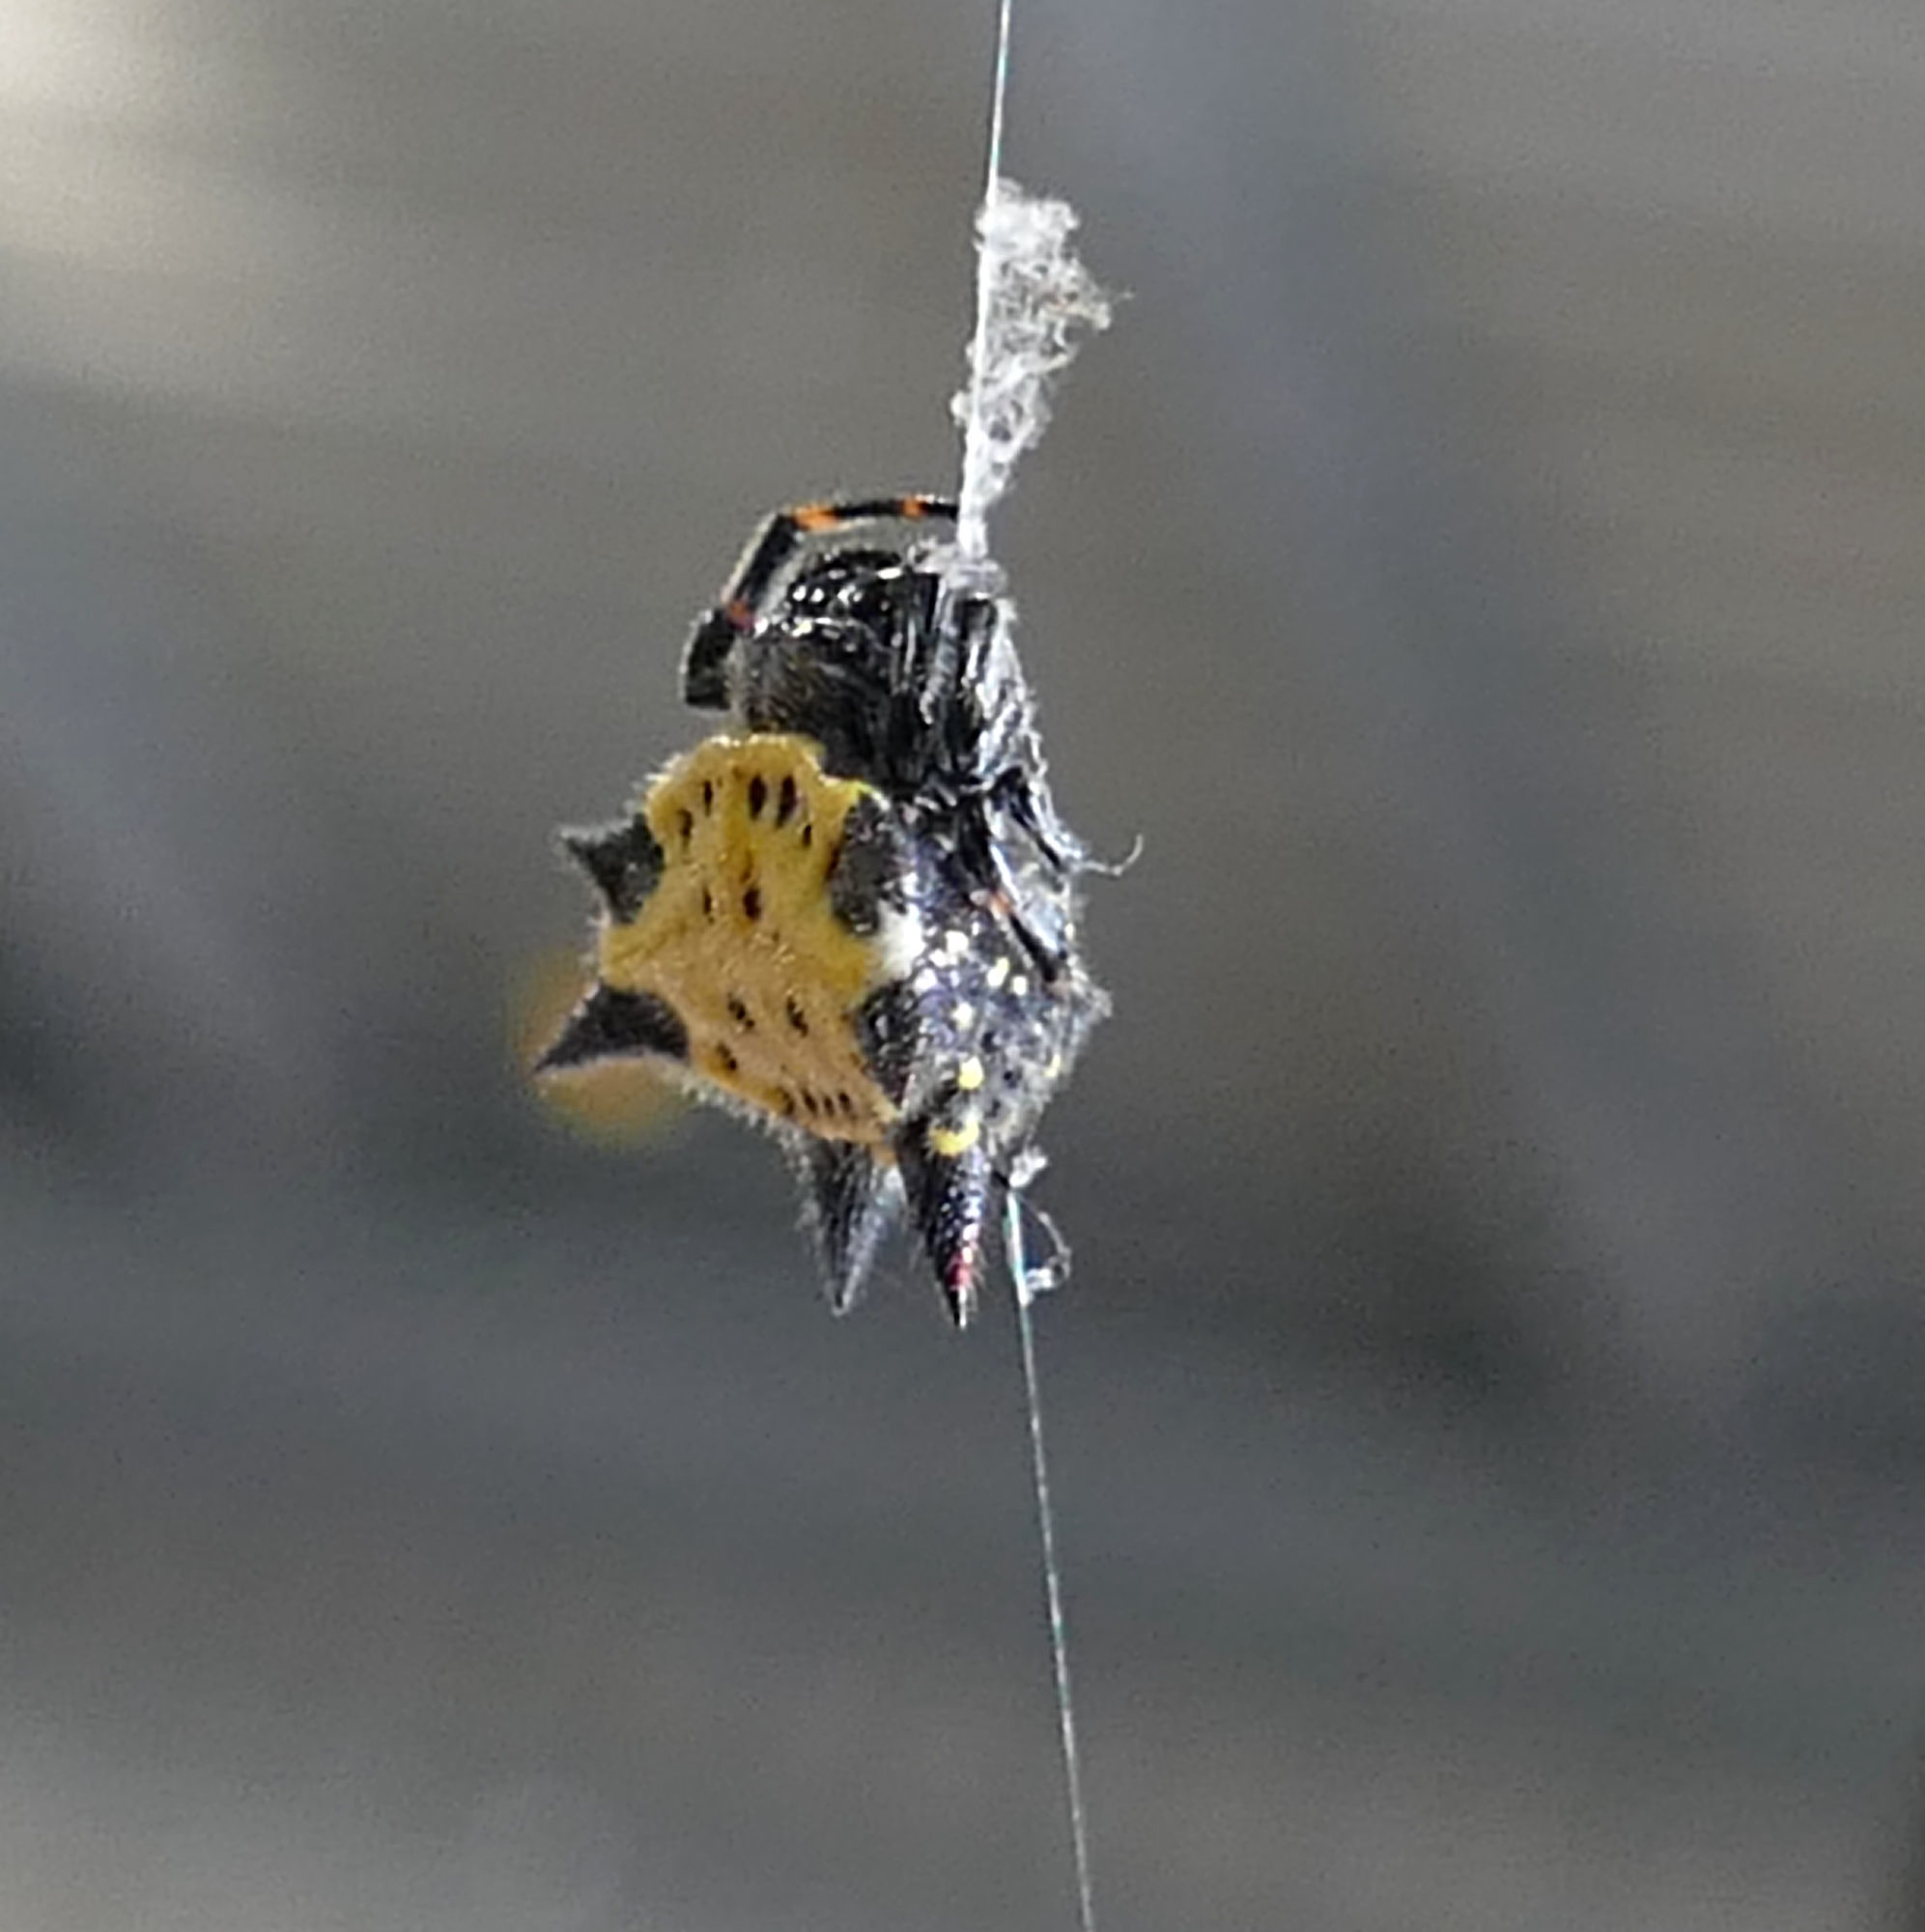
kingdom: Animalia
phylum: Arthropoda
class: Arachnida
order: Araneae
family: Araneidae
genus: Gasteracantha
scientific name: Gasteracantha cancriformis
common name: Orb weavers
